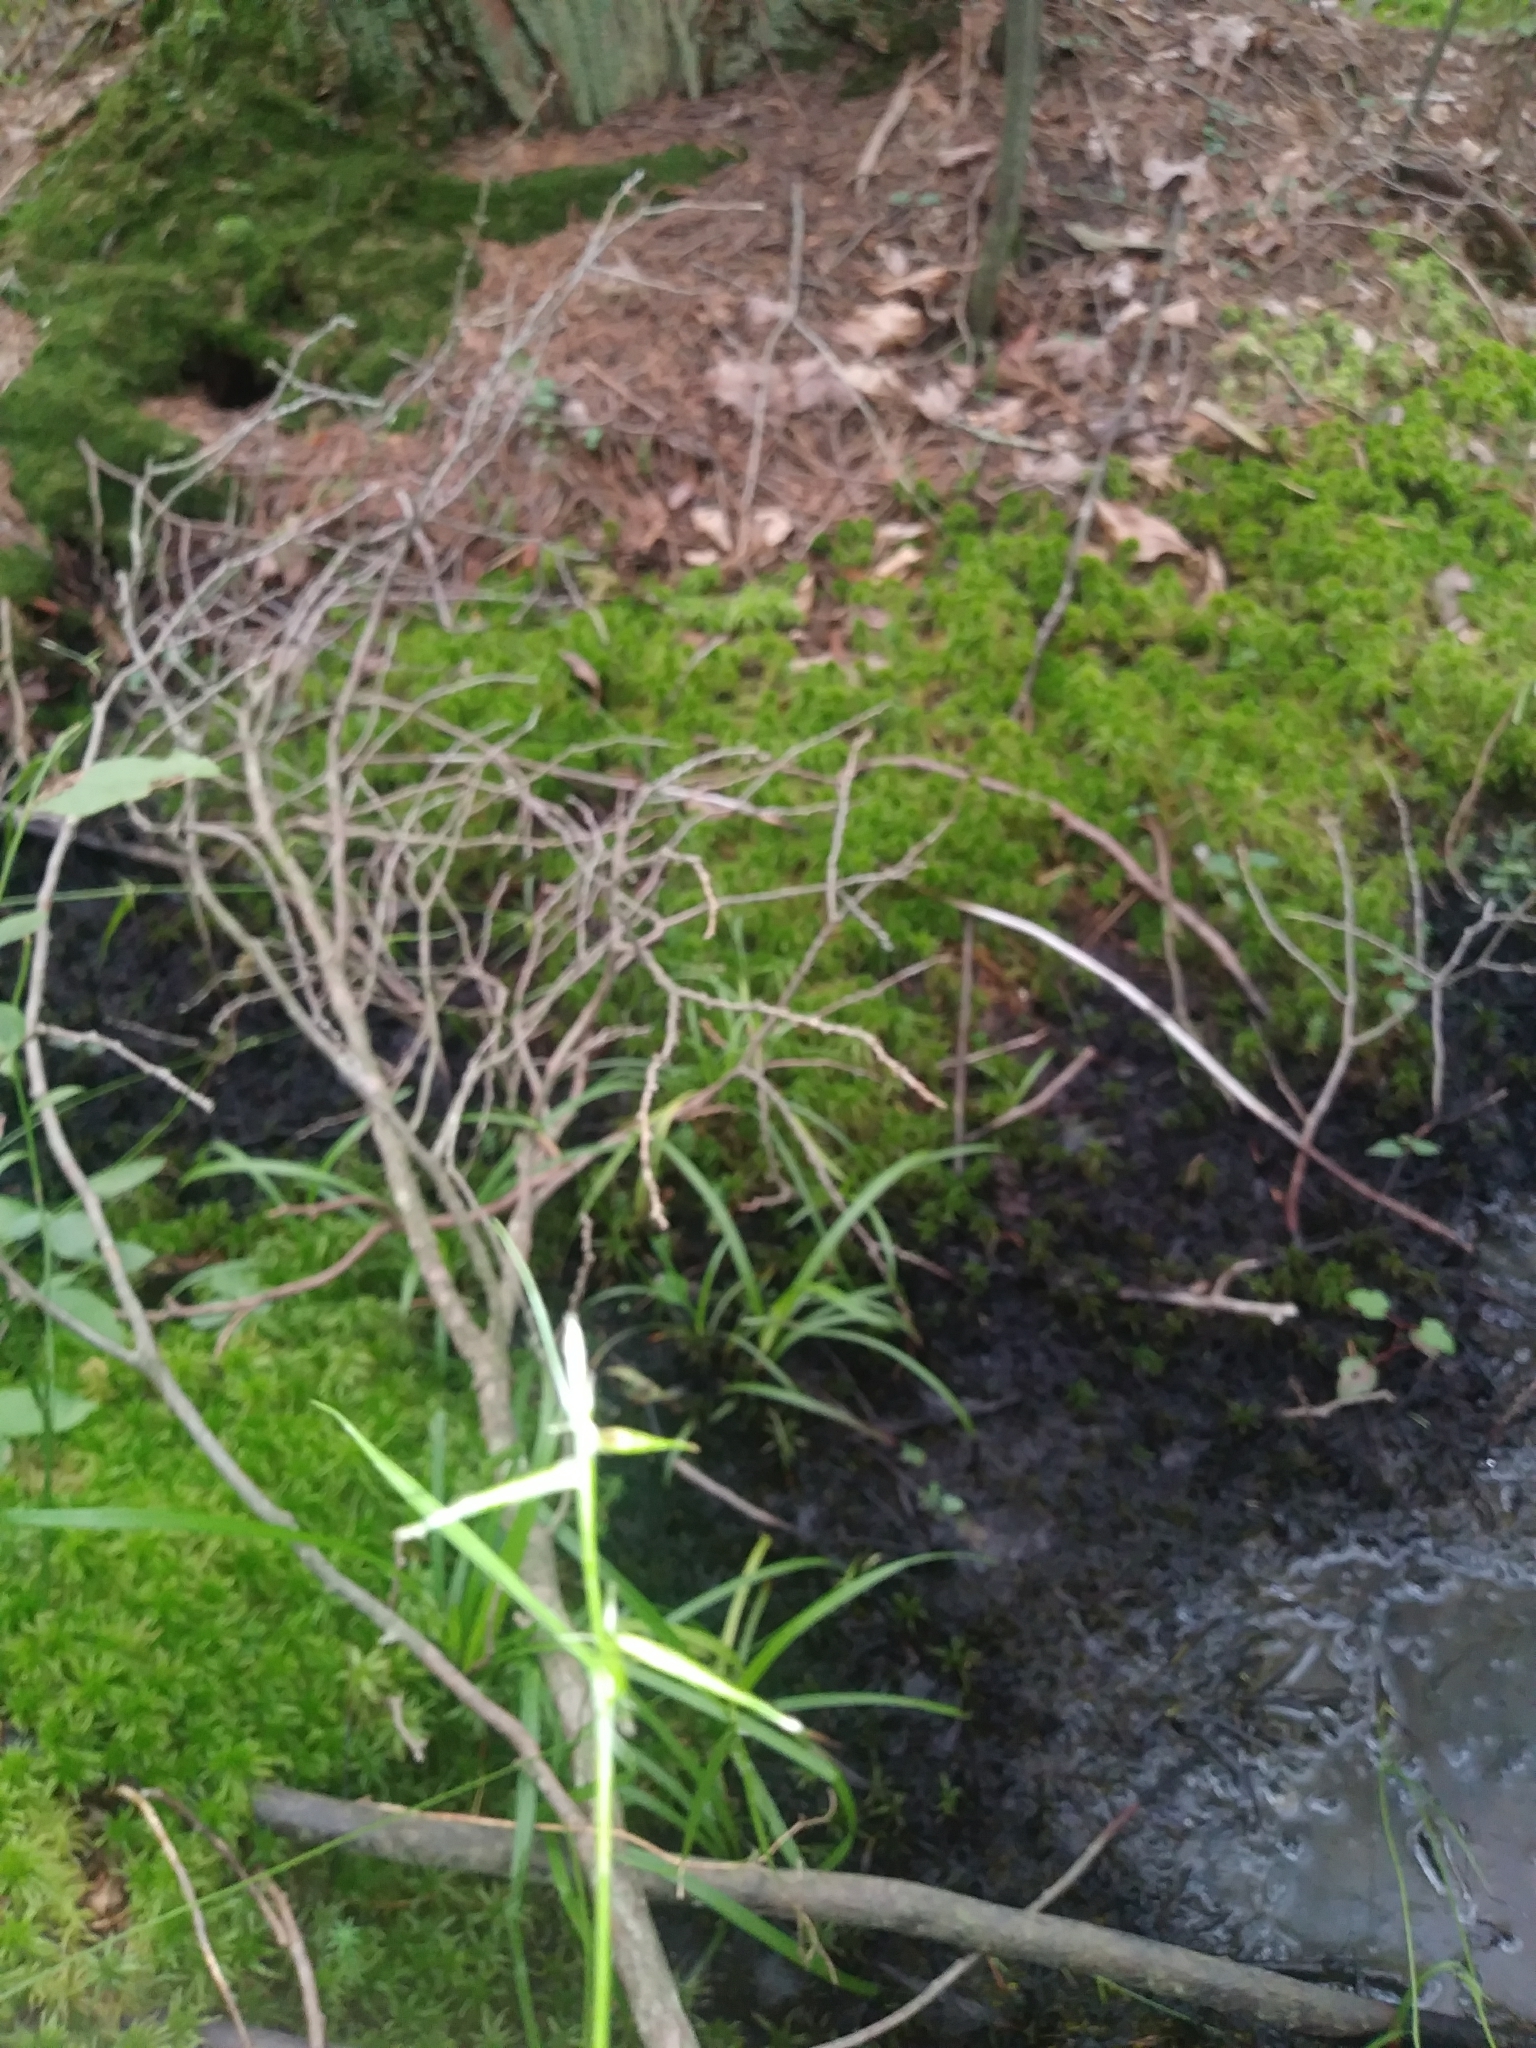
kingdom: Plantae
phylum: Tracheophyta
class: Liliopsida
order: Poales
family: Cyperaceae
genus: Carex
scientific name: Carex collinsii
